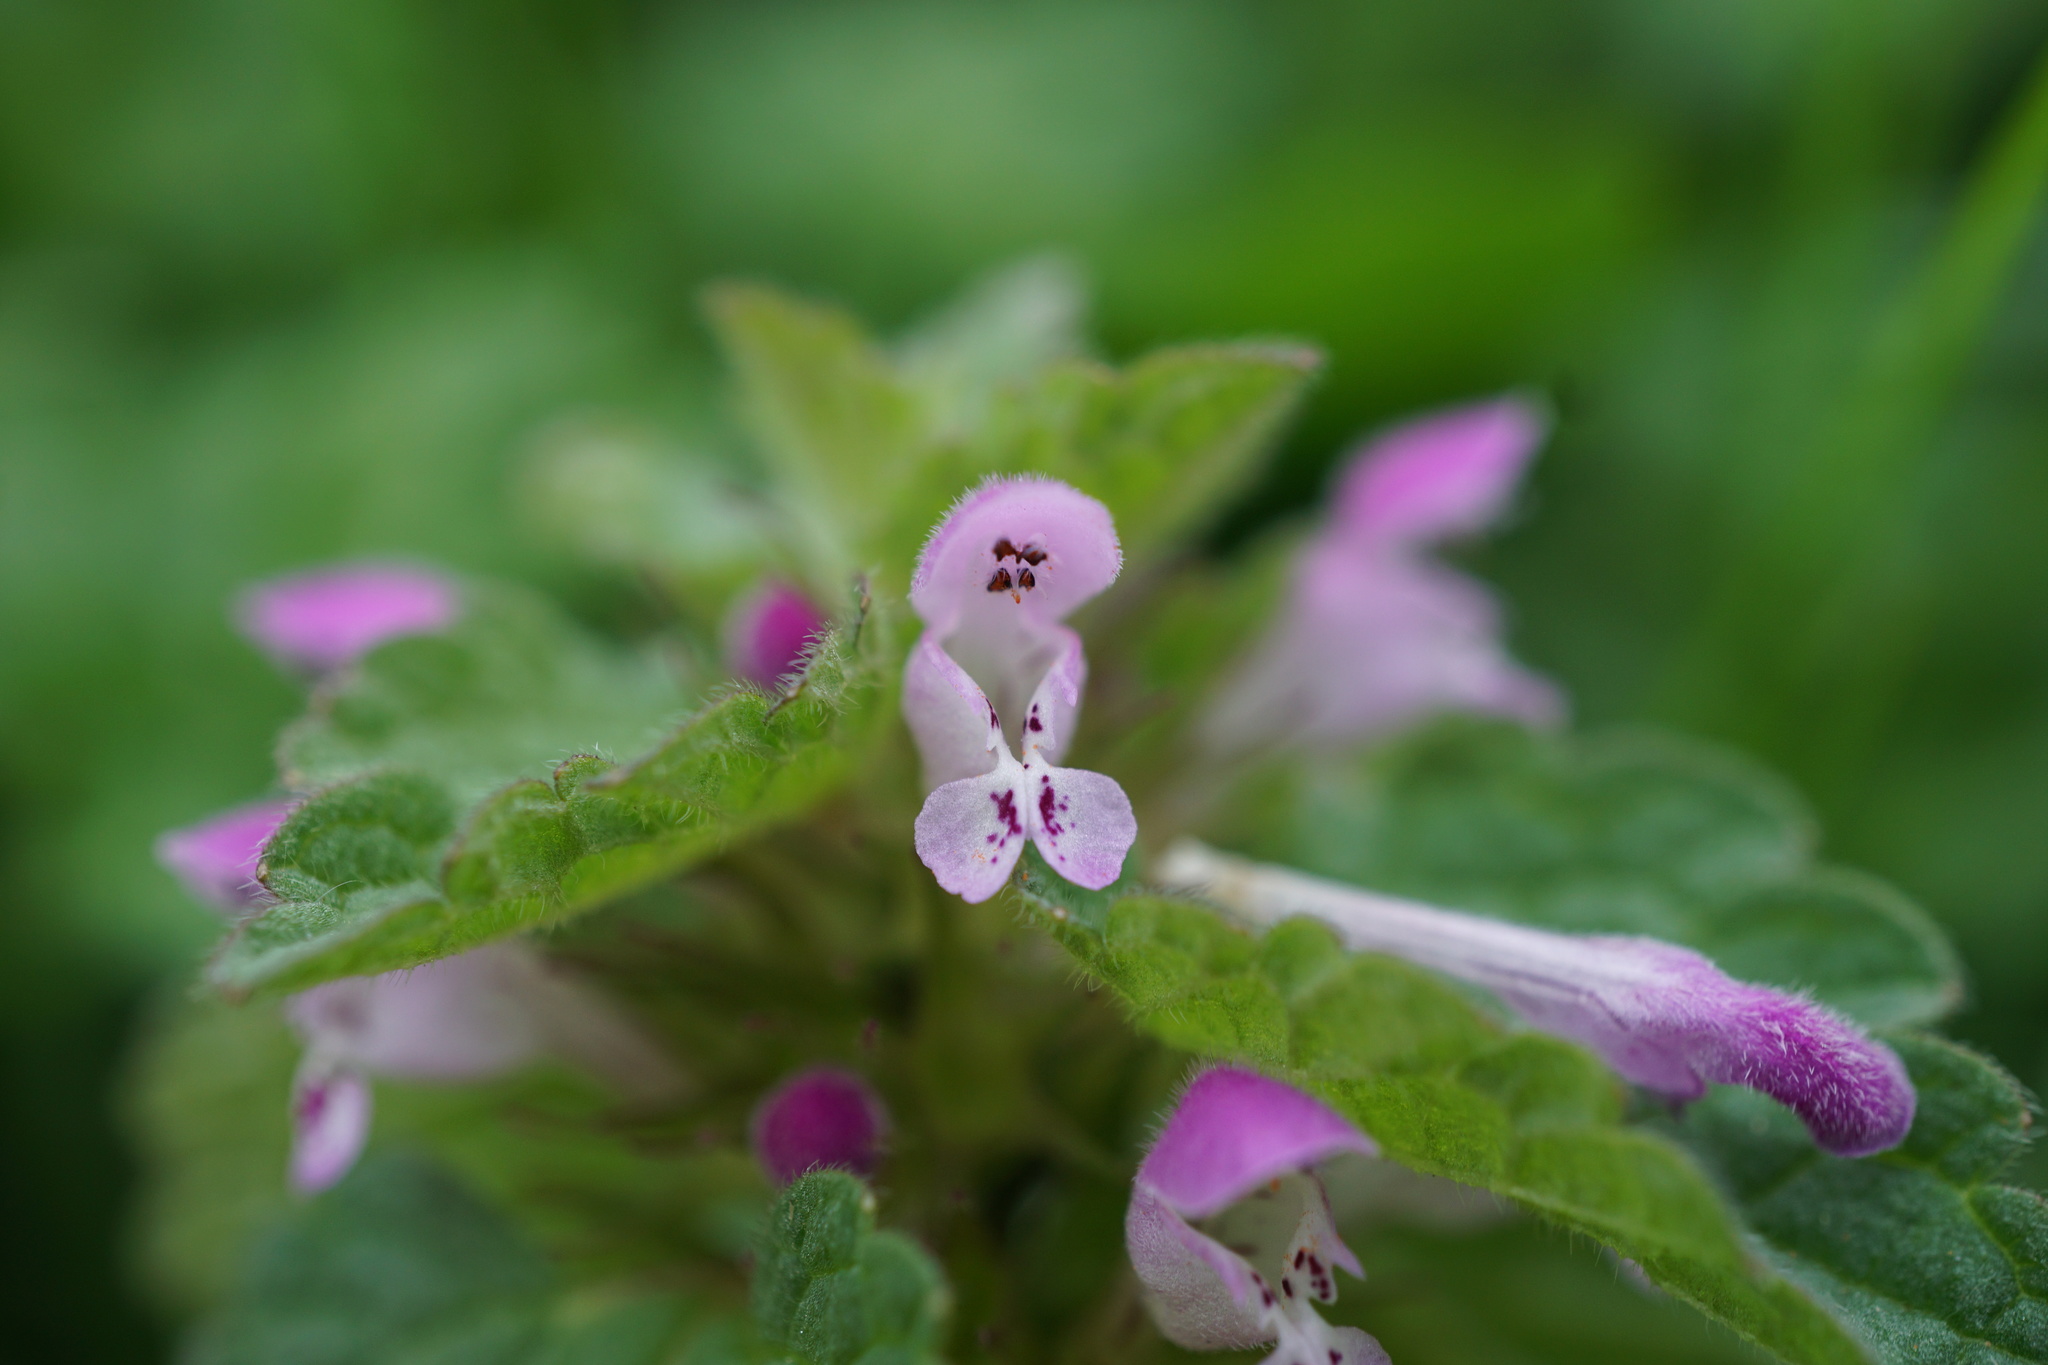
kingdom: Plantae
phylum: Tracheophyta
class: Magnoliopsida
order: Lamiales
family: Lamiaceae
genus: Lamium
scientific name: Lamium purpureum
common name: Red dead-nettle
